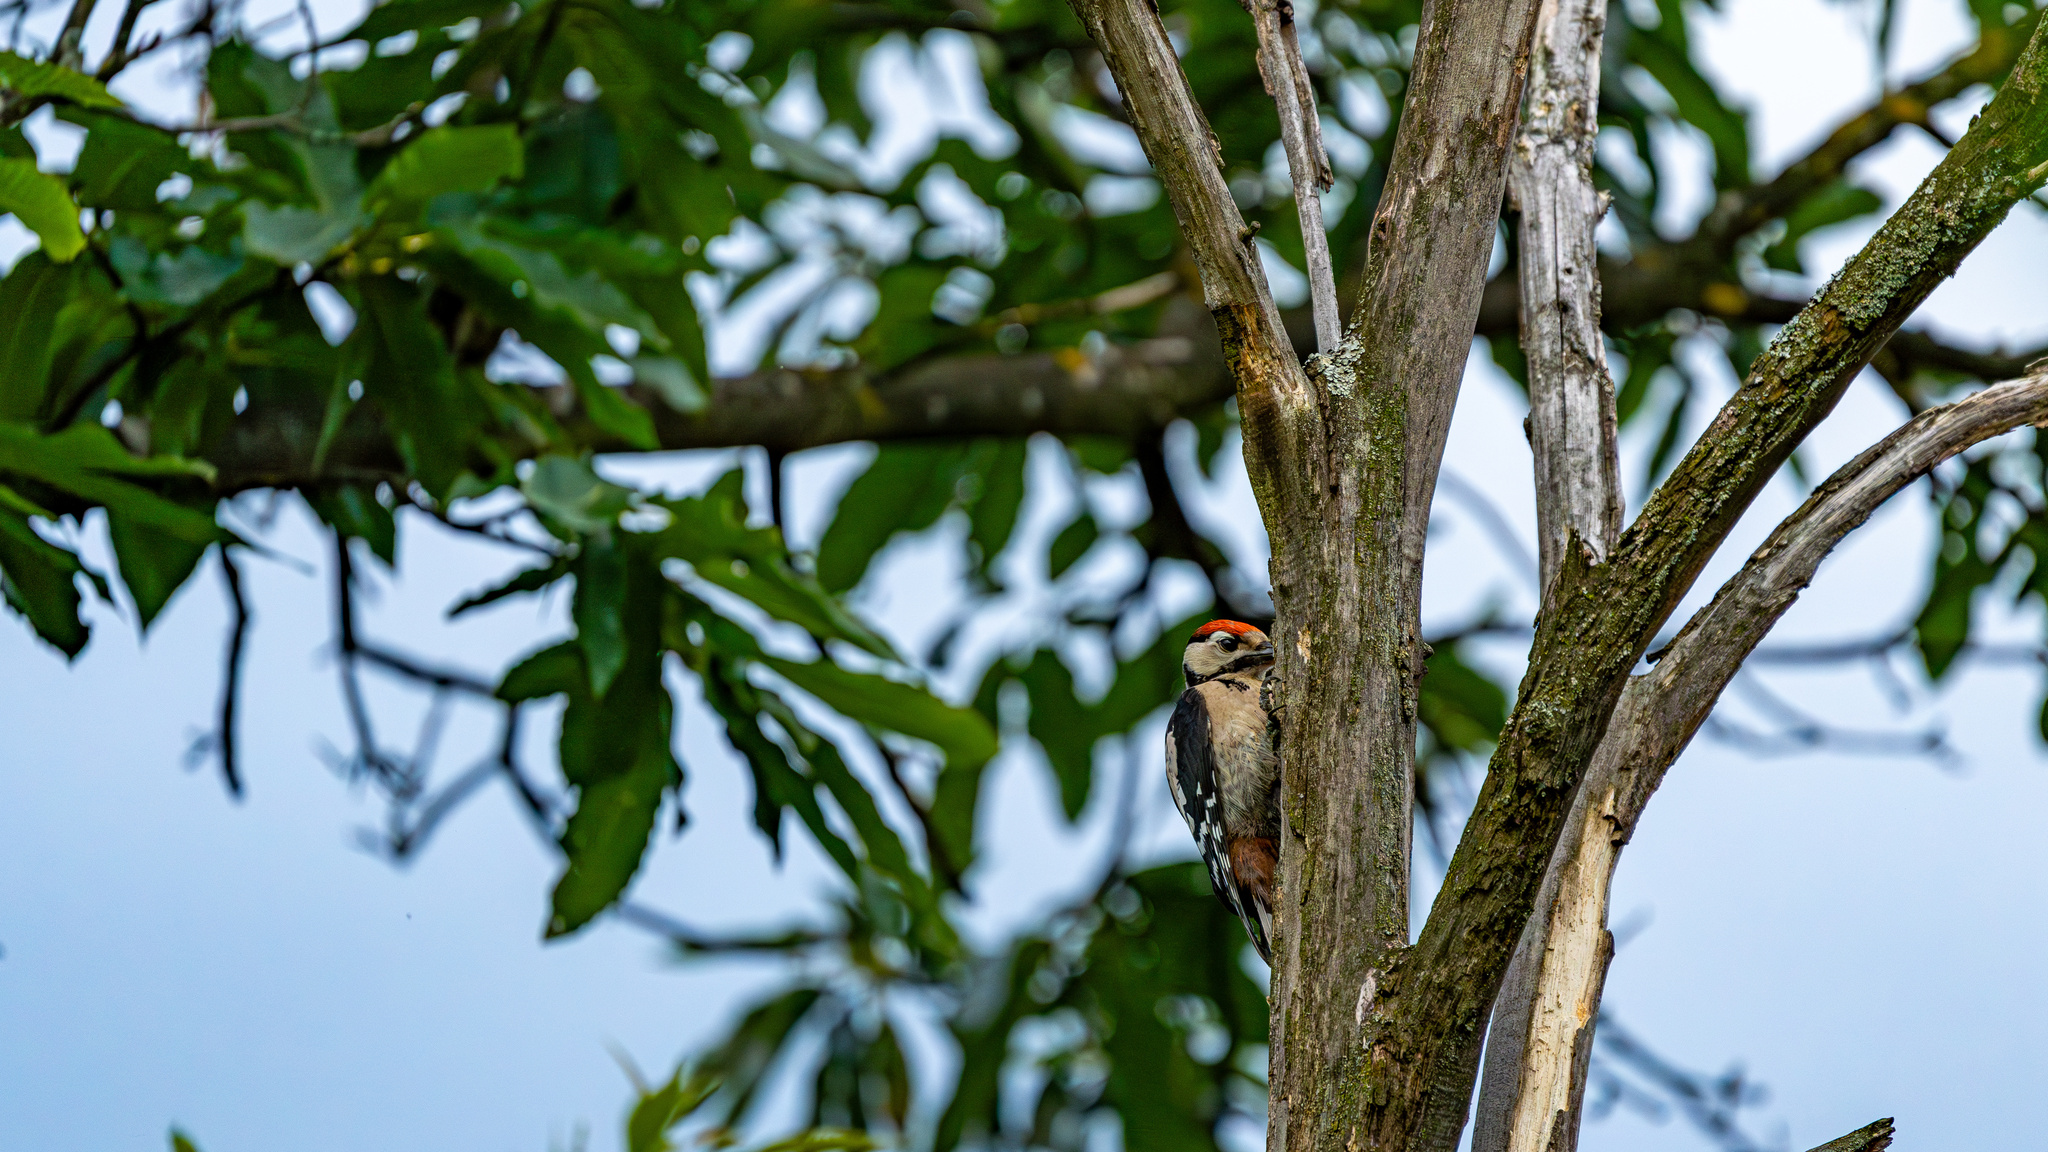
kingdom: Animalia
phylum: Chordata
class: Aves
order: Piciformes
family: Picidae
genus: Dendrocopos
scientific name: Dendrocopos major
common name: Great spotted woodpecker
